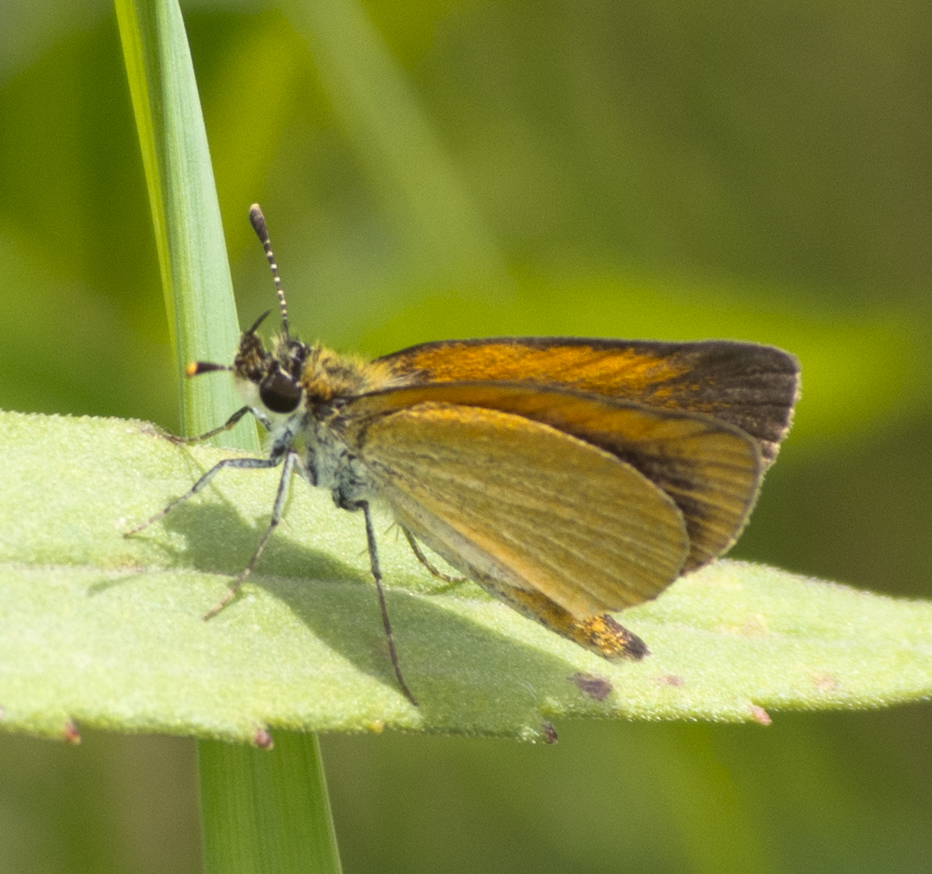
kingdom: Animalia
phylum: Arthropoda
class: Insecta
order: Lepidoptera
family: Hesperiidae
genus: Ancyloxypha
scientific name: Ancyloxypha numitor
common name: Least skipper
